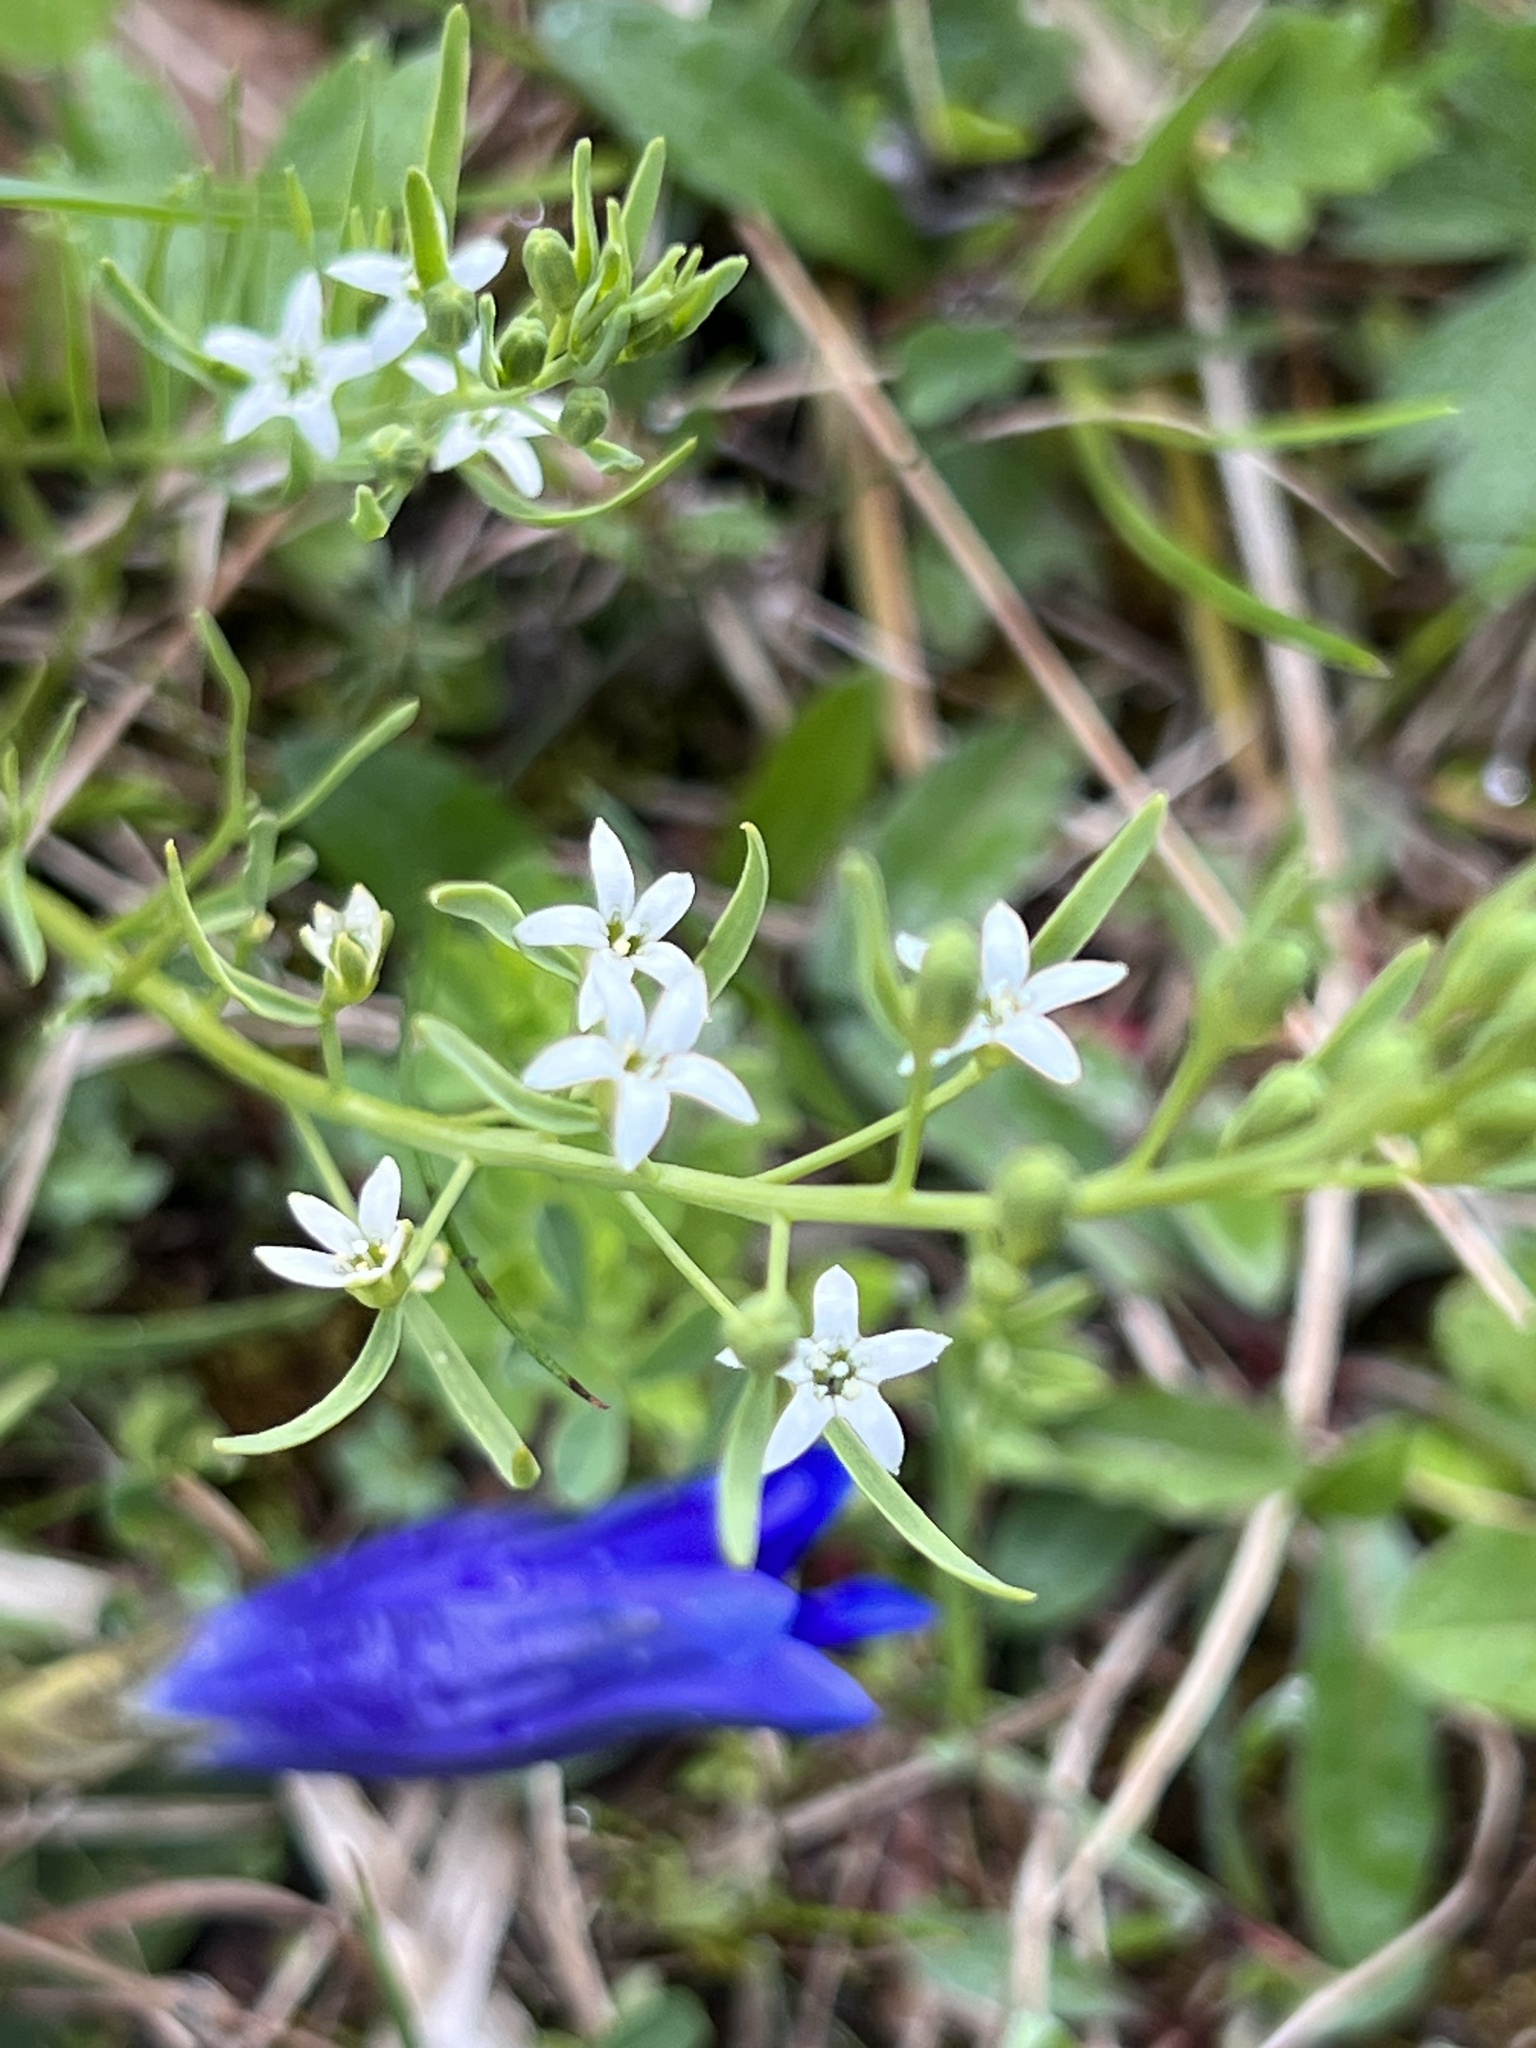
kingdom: Plantae
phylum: Tracheophyta
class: Magnoliopsida
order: Santalales
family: Thesiaceae
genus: Thesium
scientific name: Thesium rostratum
